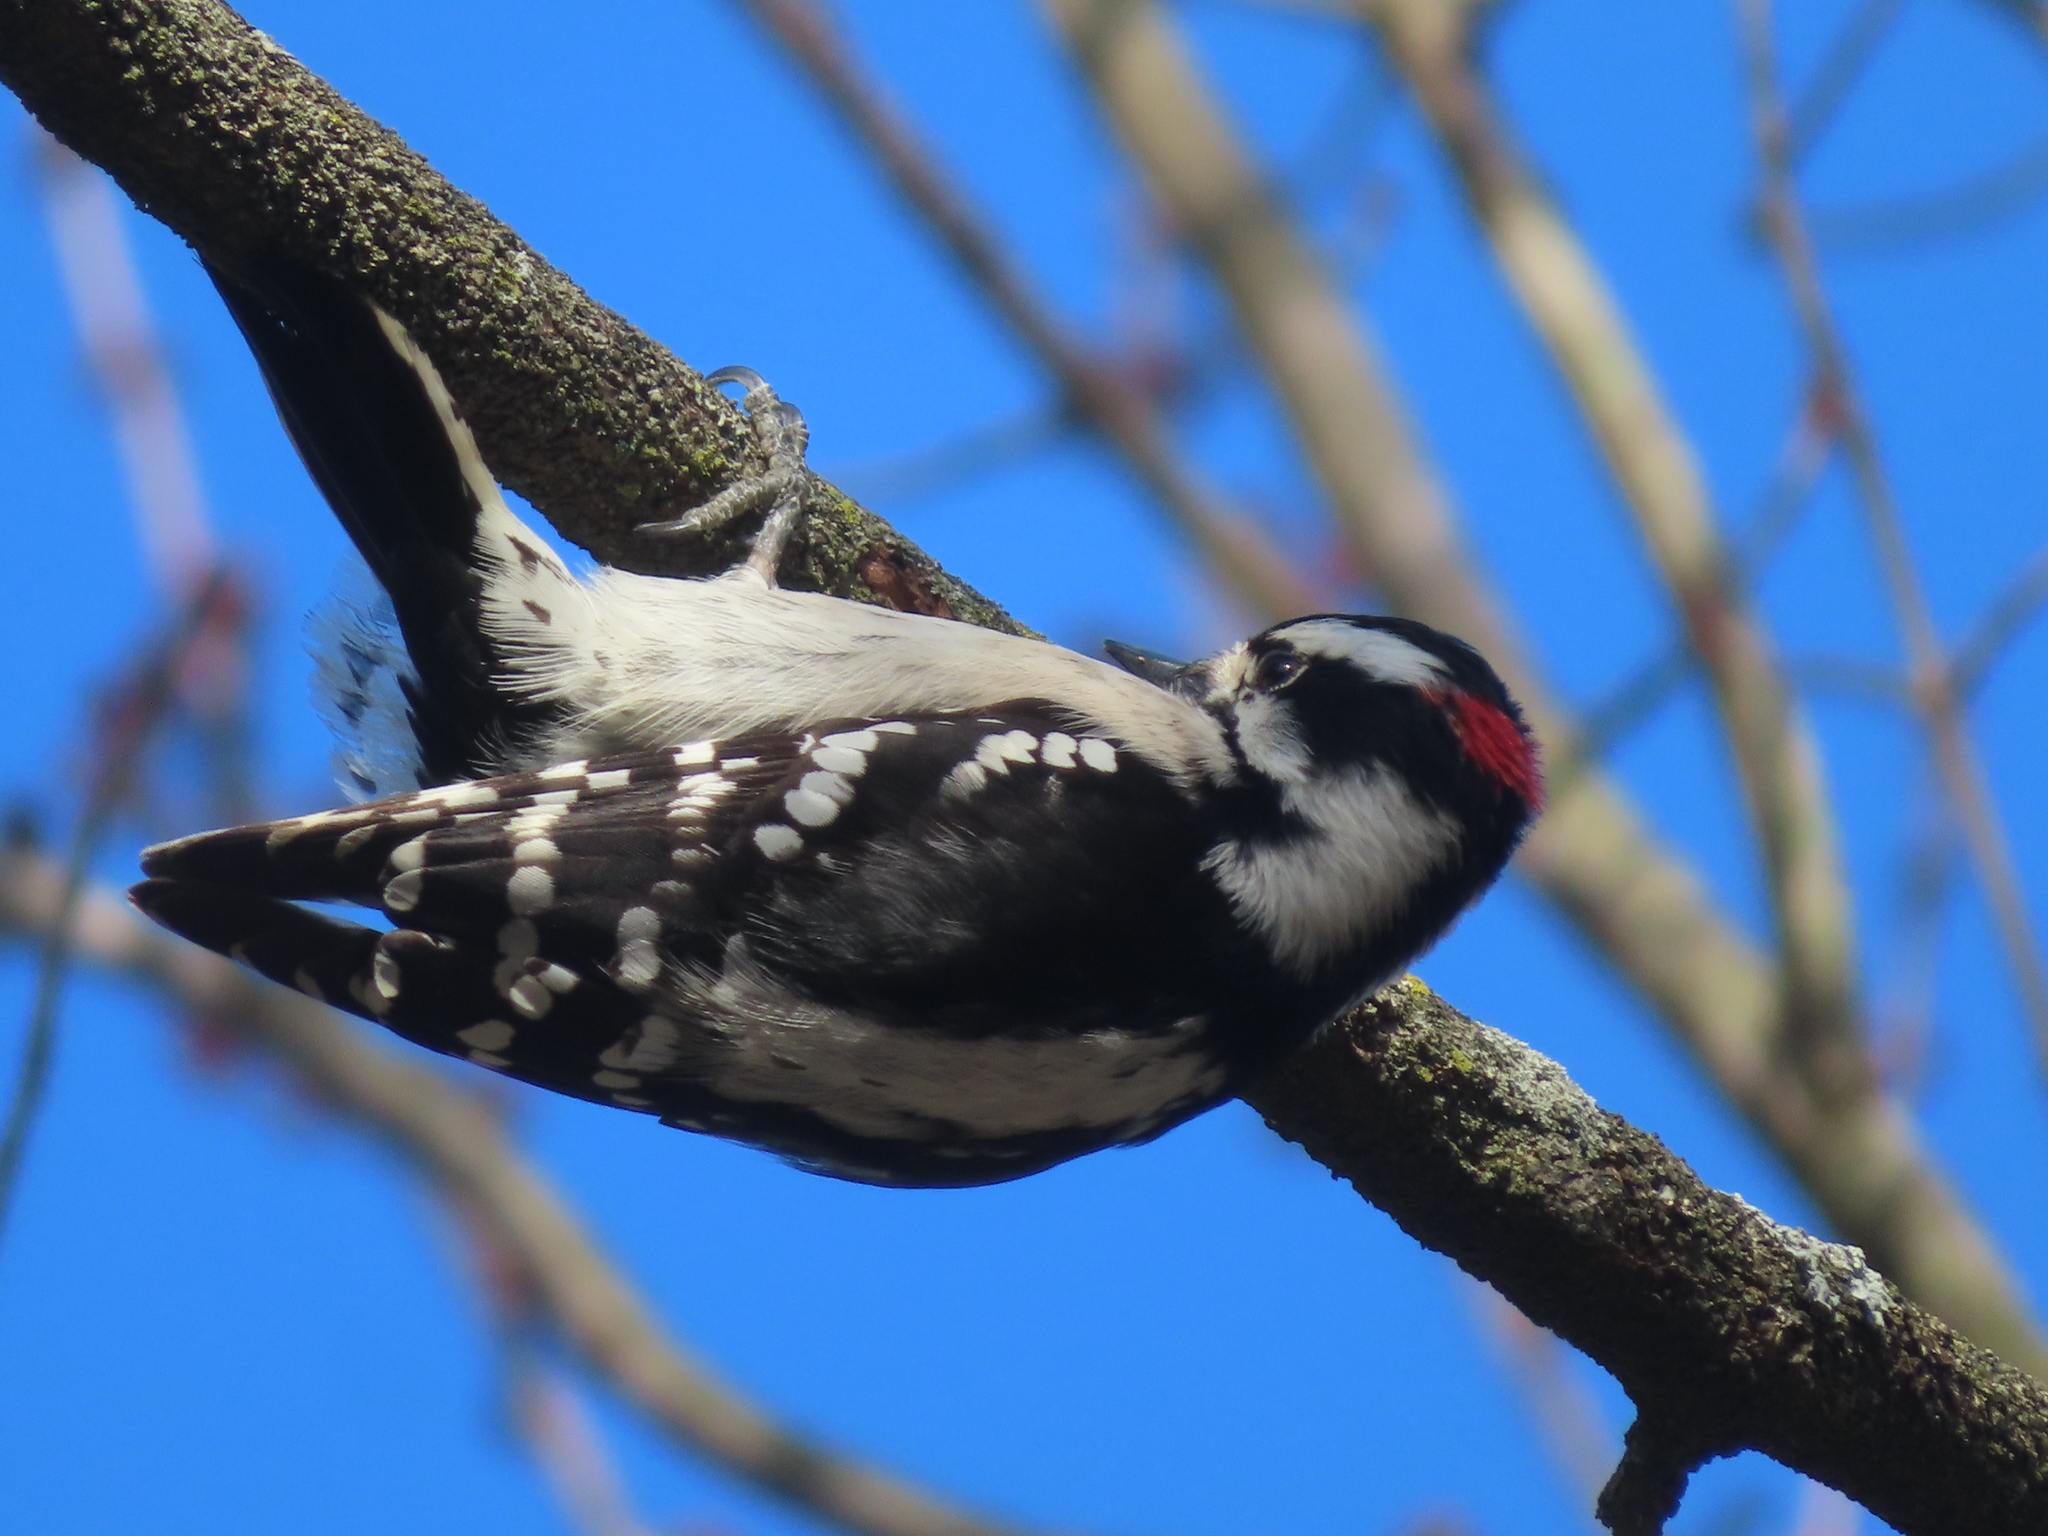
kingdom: Animalia
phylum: Chordata
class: Aves
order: Piciformes
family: Picidae
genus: Dryobates
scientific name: Dryobates pubescens
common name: Downy woodpecker
